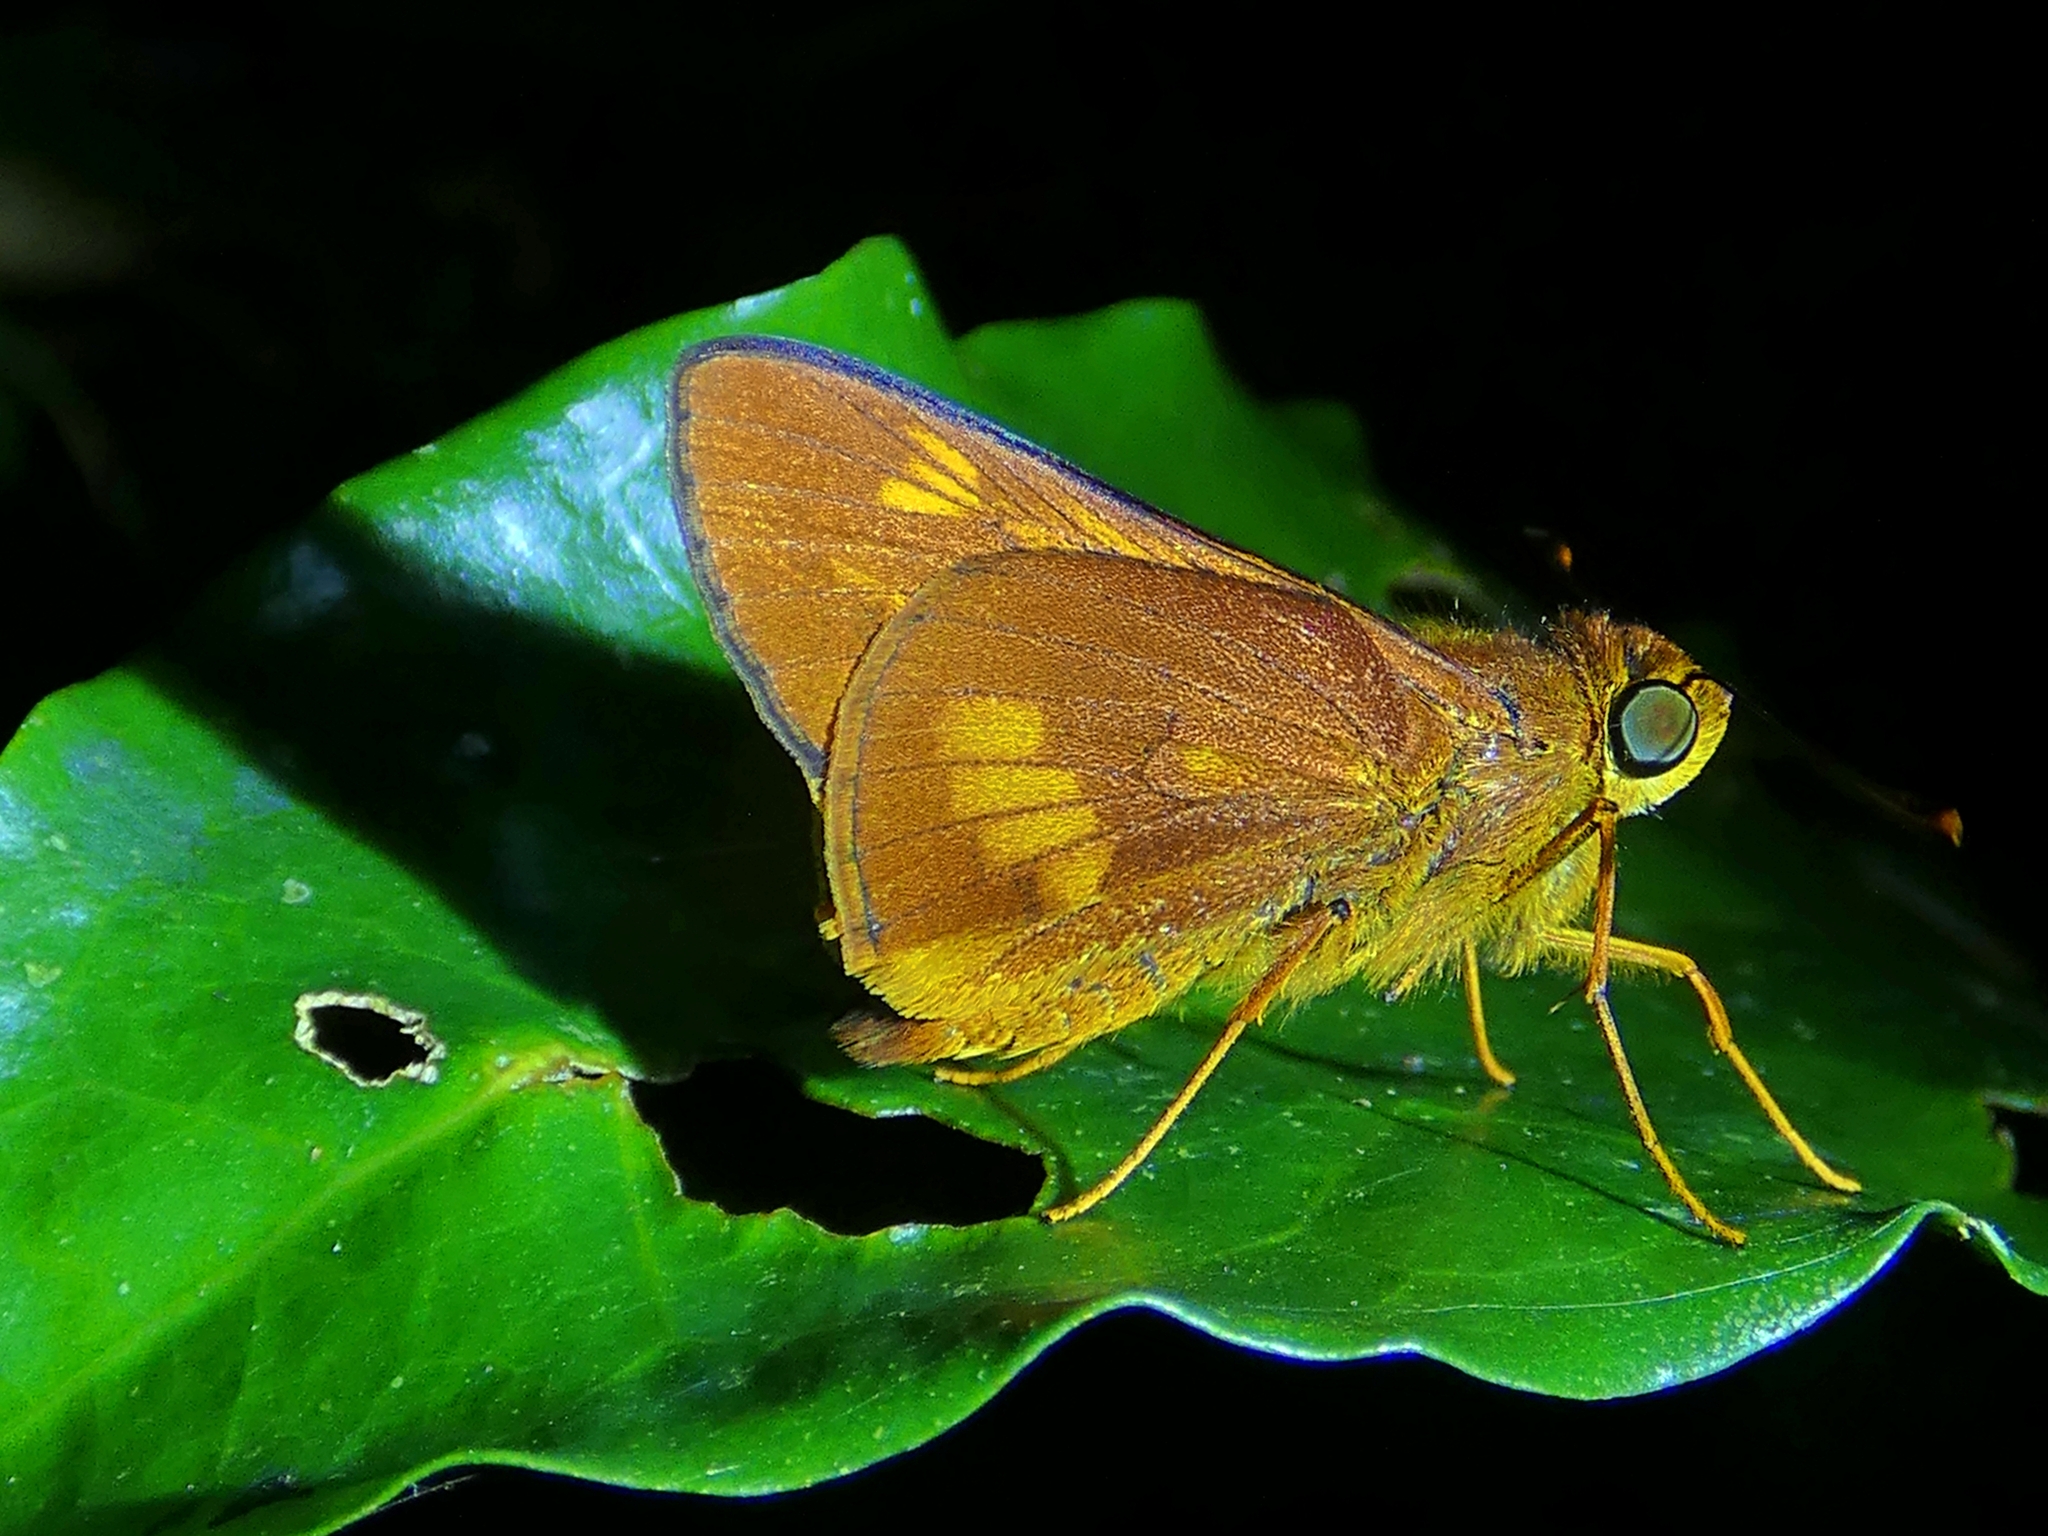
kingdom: Animalia
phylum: Arthropoda
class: Insecta
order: Lepidoptera
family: Hesperiidae
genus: Cephrenes
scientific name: Cephrenes augiades
